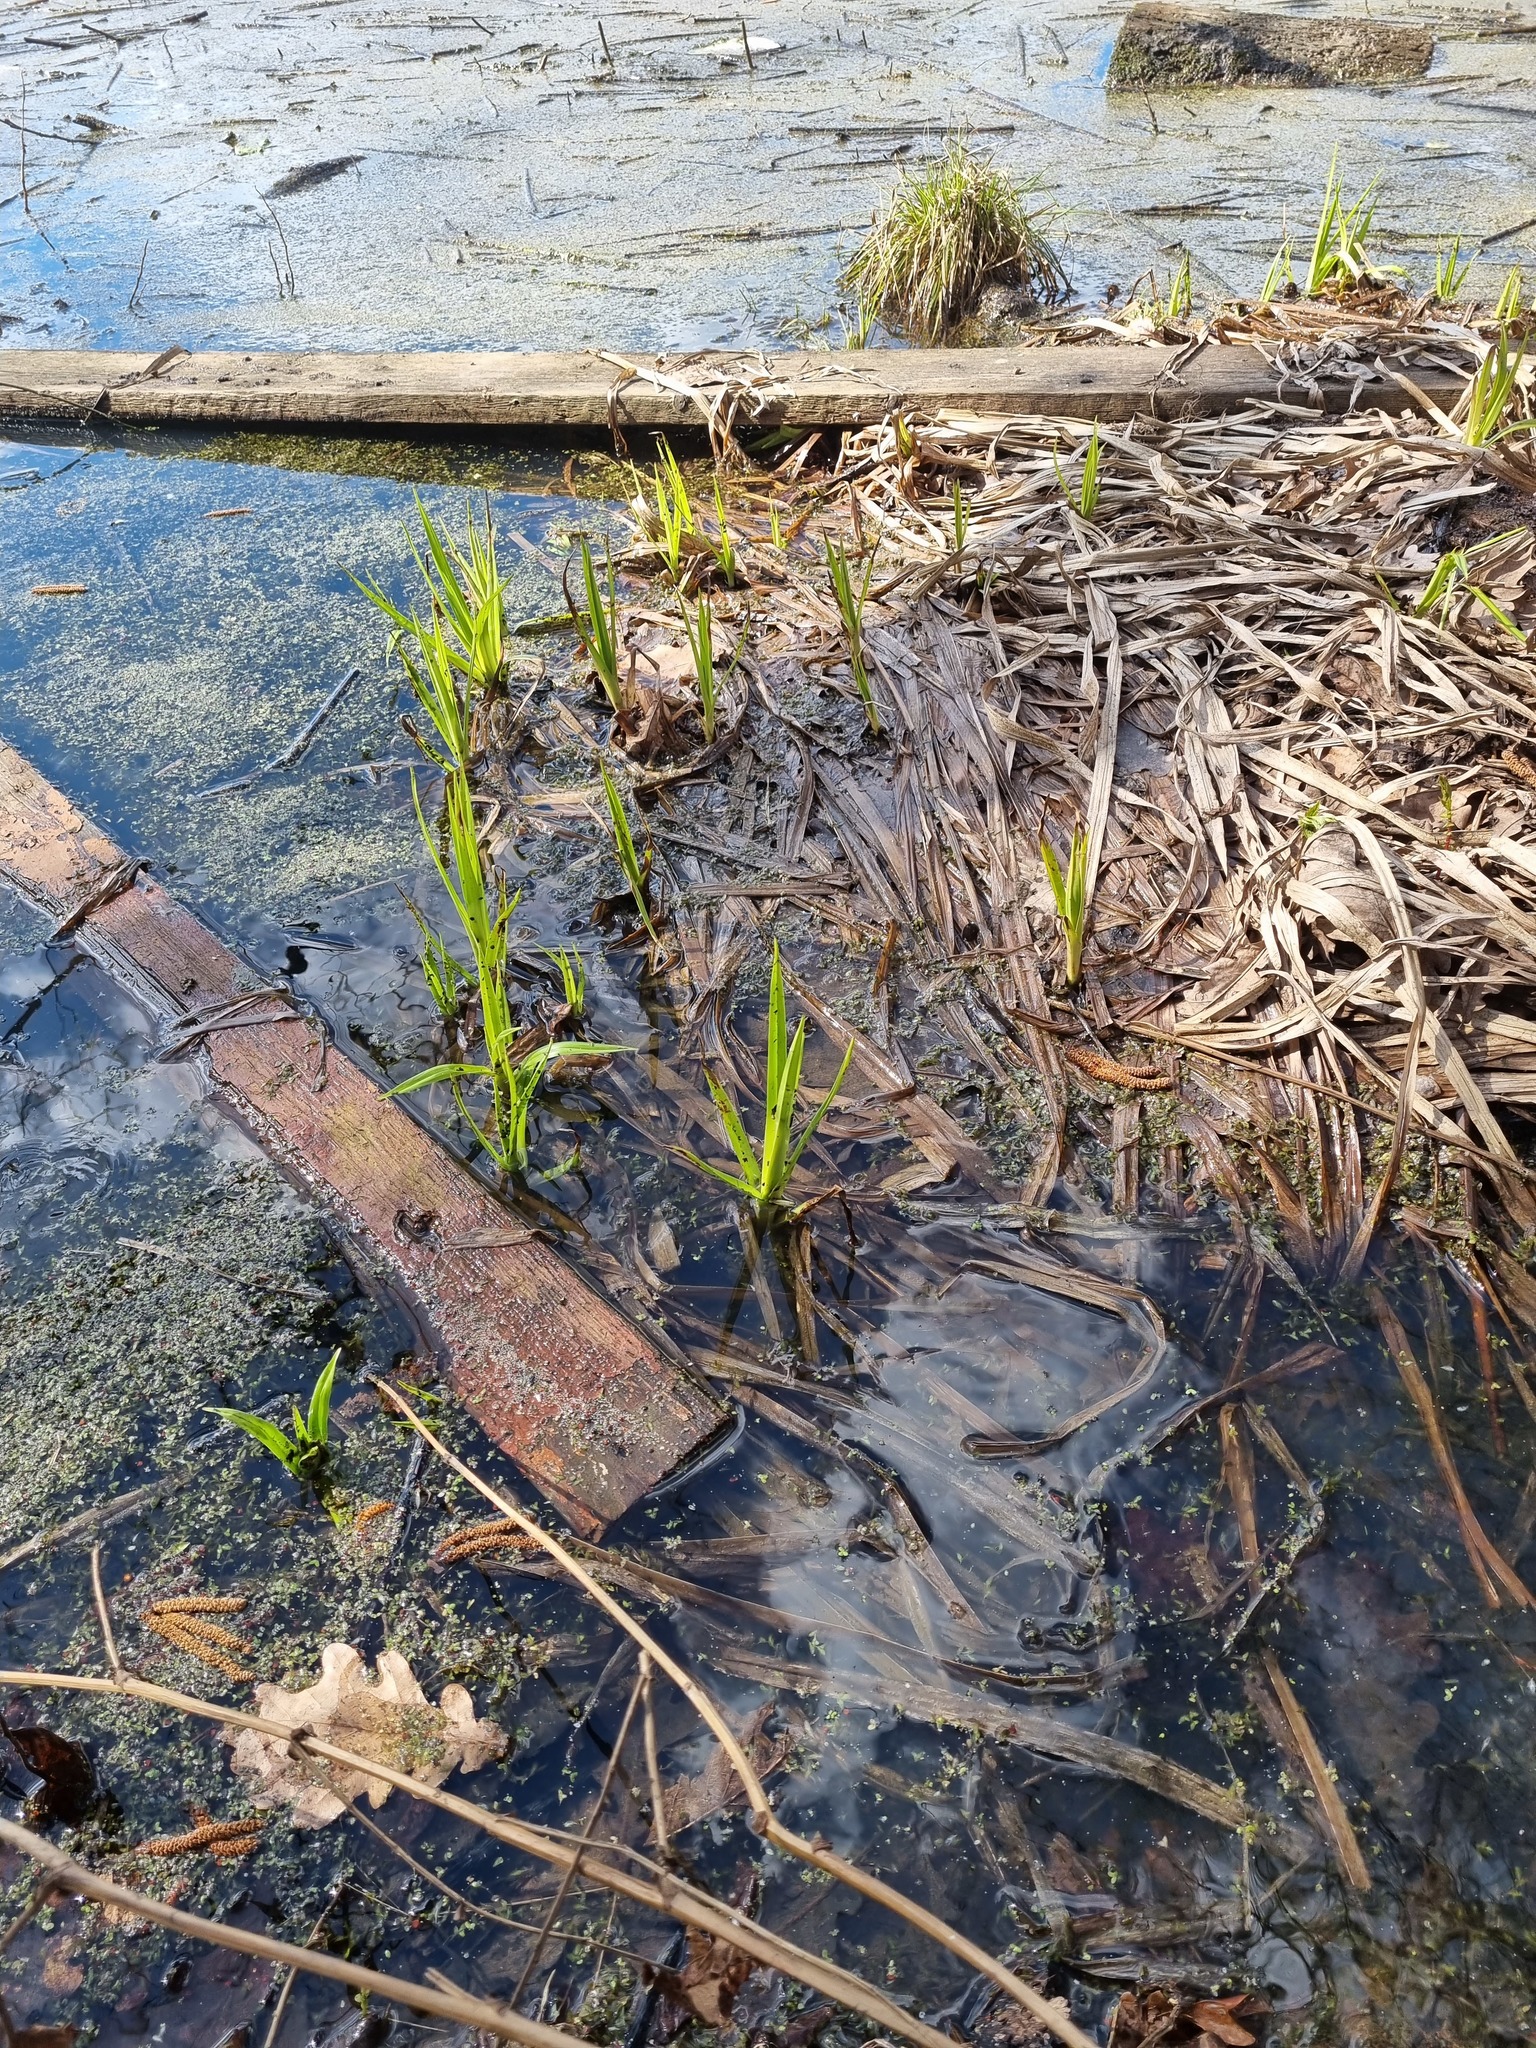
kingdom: Plantae
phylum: Tracheophyta
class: Liliopsida
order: Poales
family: Cyperaceae
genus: Scirpus
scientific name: Scirpus sylvaticus
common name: Wood club-rush
